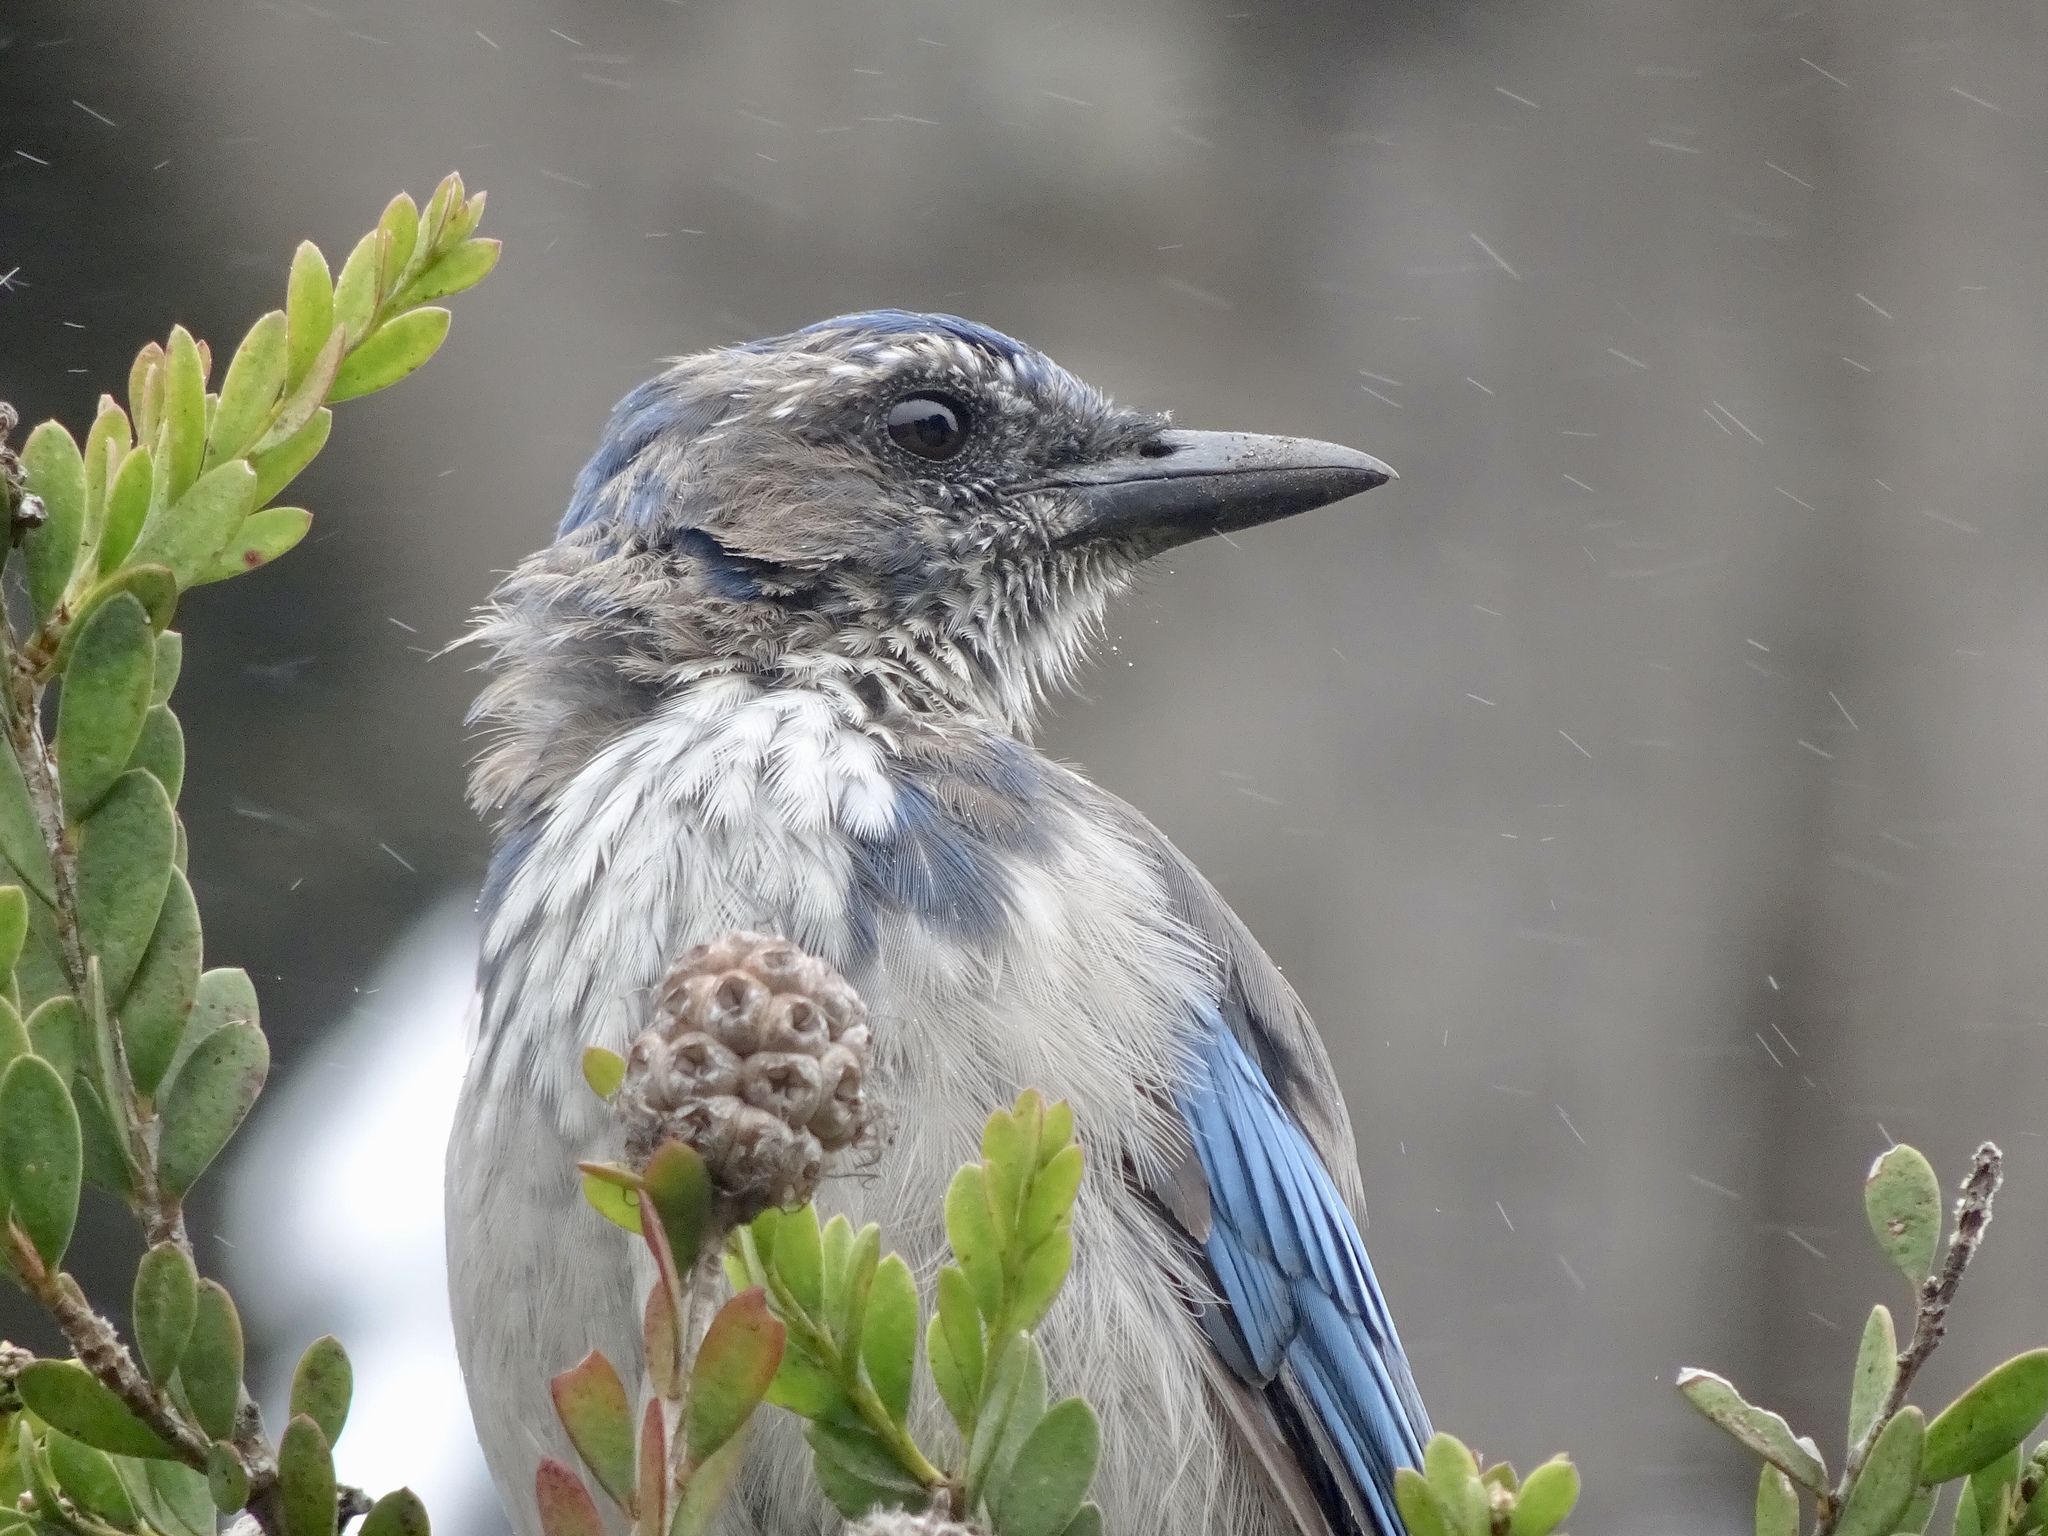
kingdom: Animalia
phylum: Chordata
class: Aves
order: Passeriformes
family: Corvidae
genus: Aphelocoma
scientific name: Aphelocoma californica
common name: California scrub-jay
